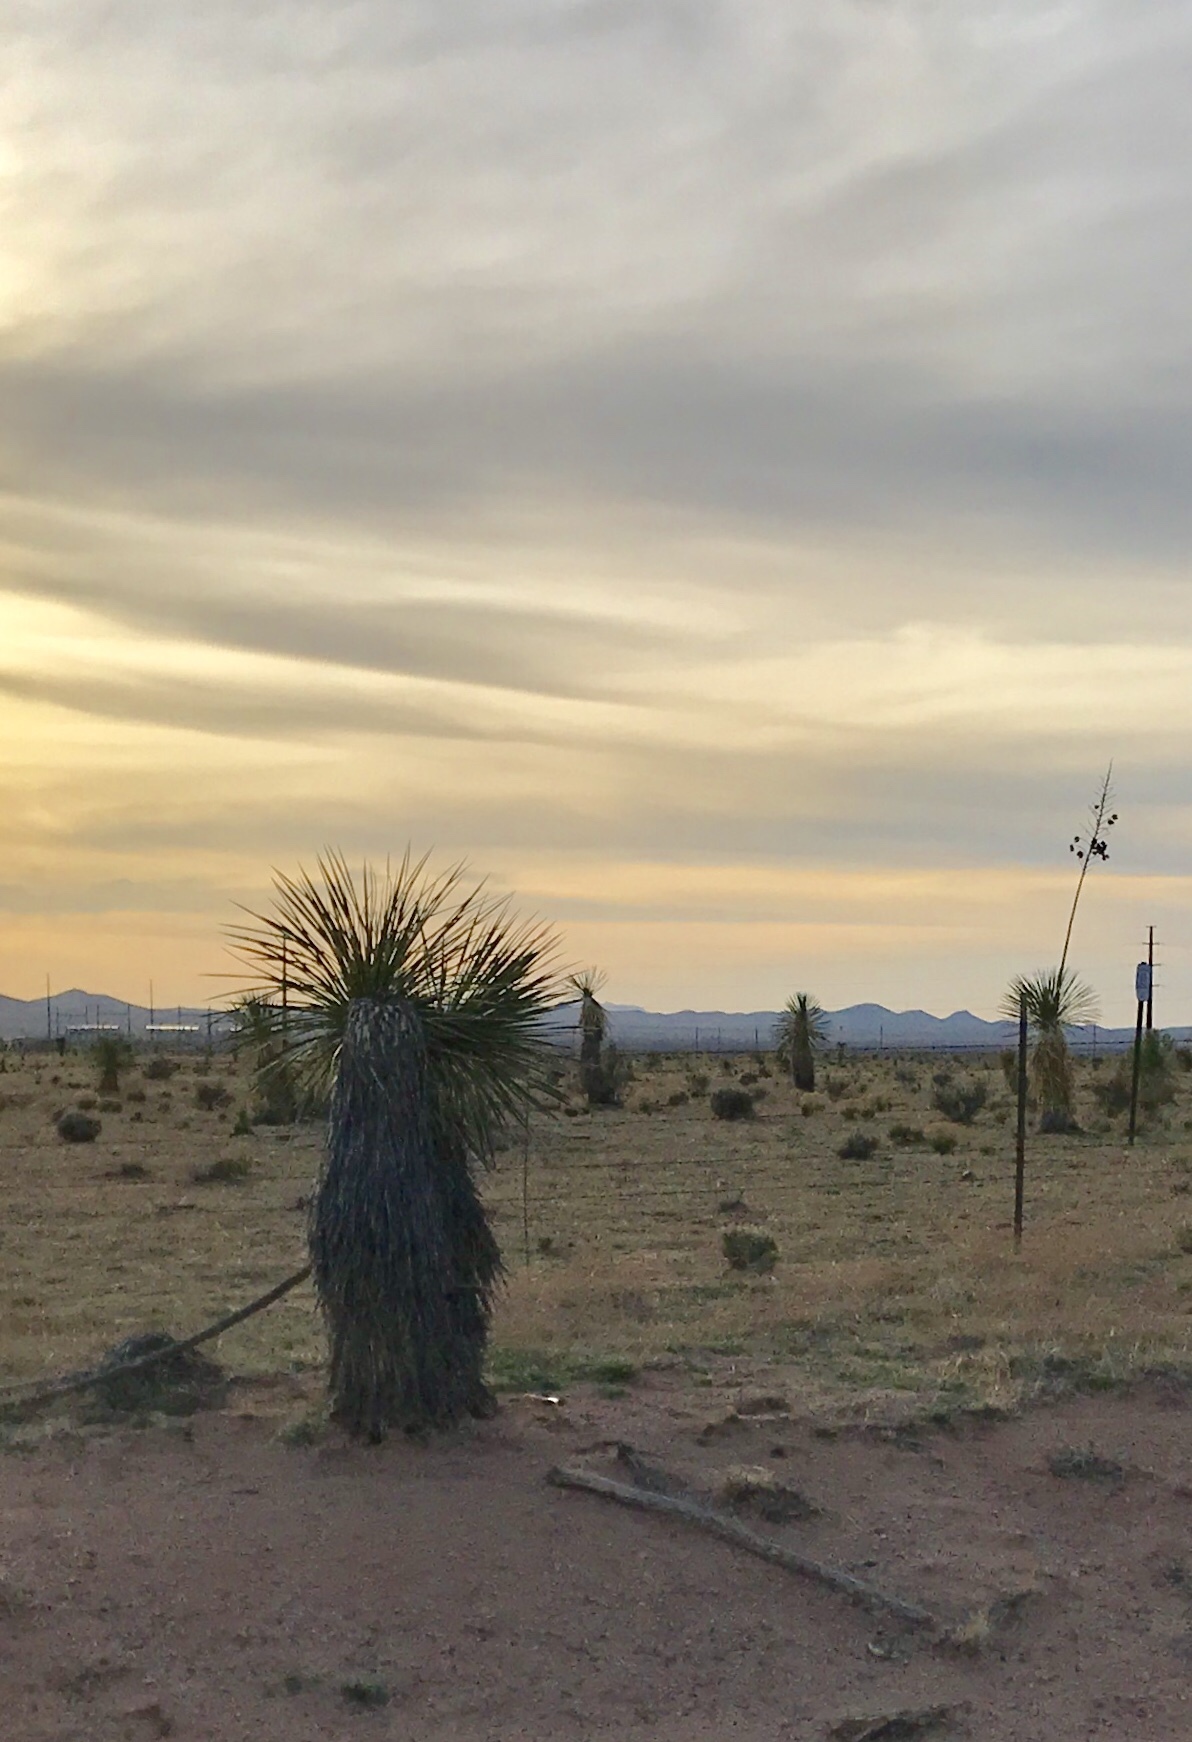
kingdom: Plantae
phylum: Tracheophyta
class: Liliopsida
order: Asparagales
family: Asparagaceae
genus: Yucca
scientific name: Yucca elata
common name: Palmella
